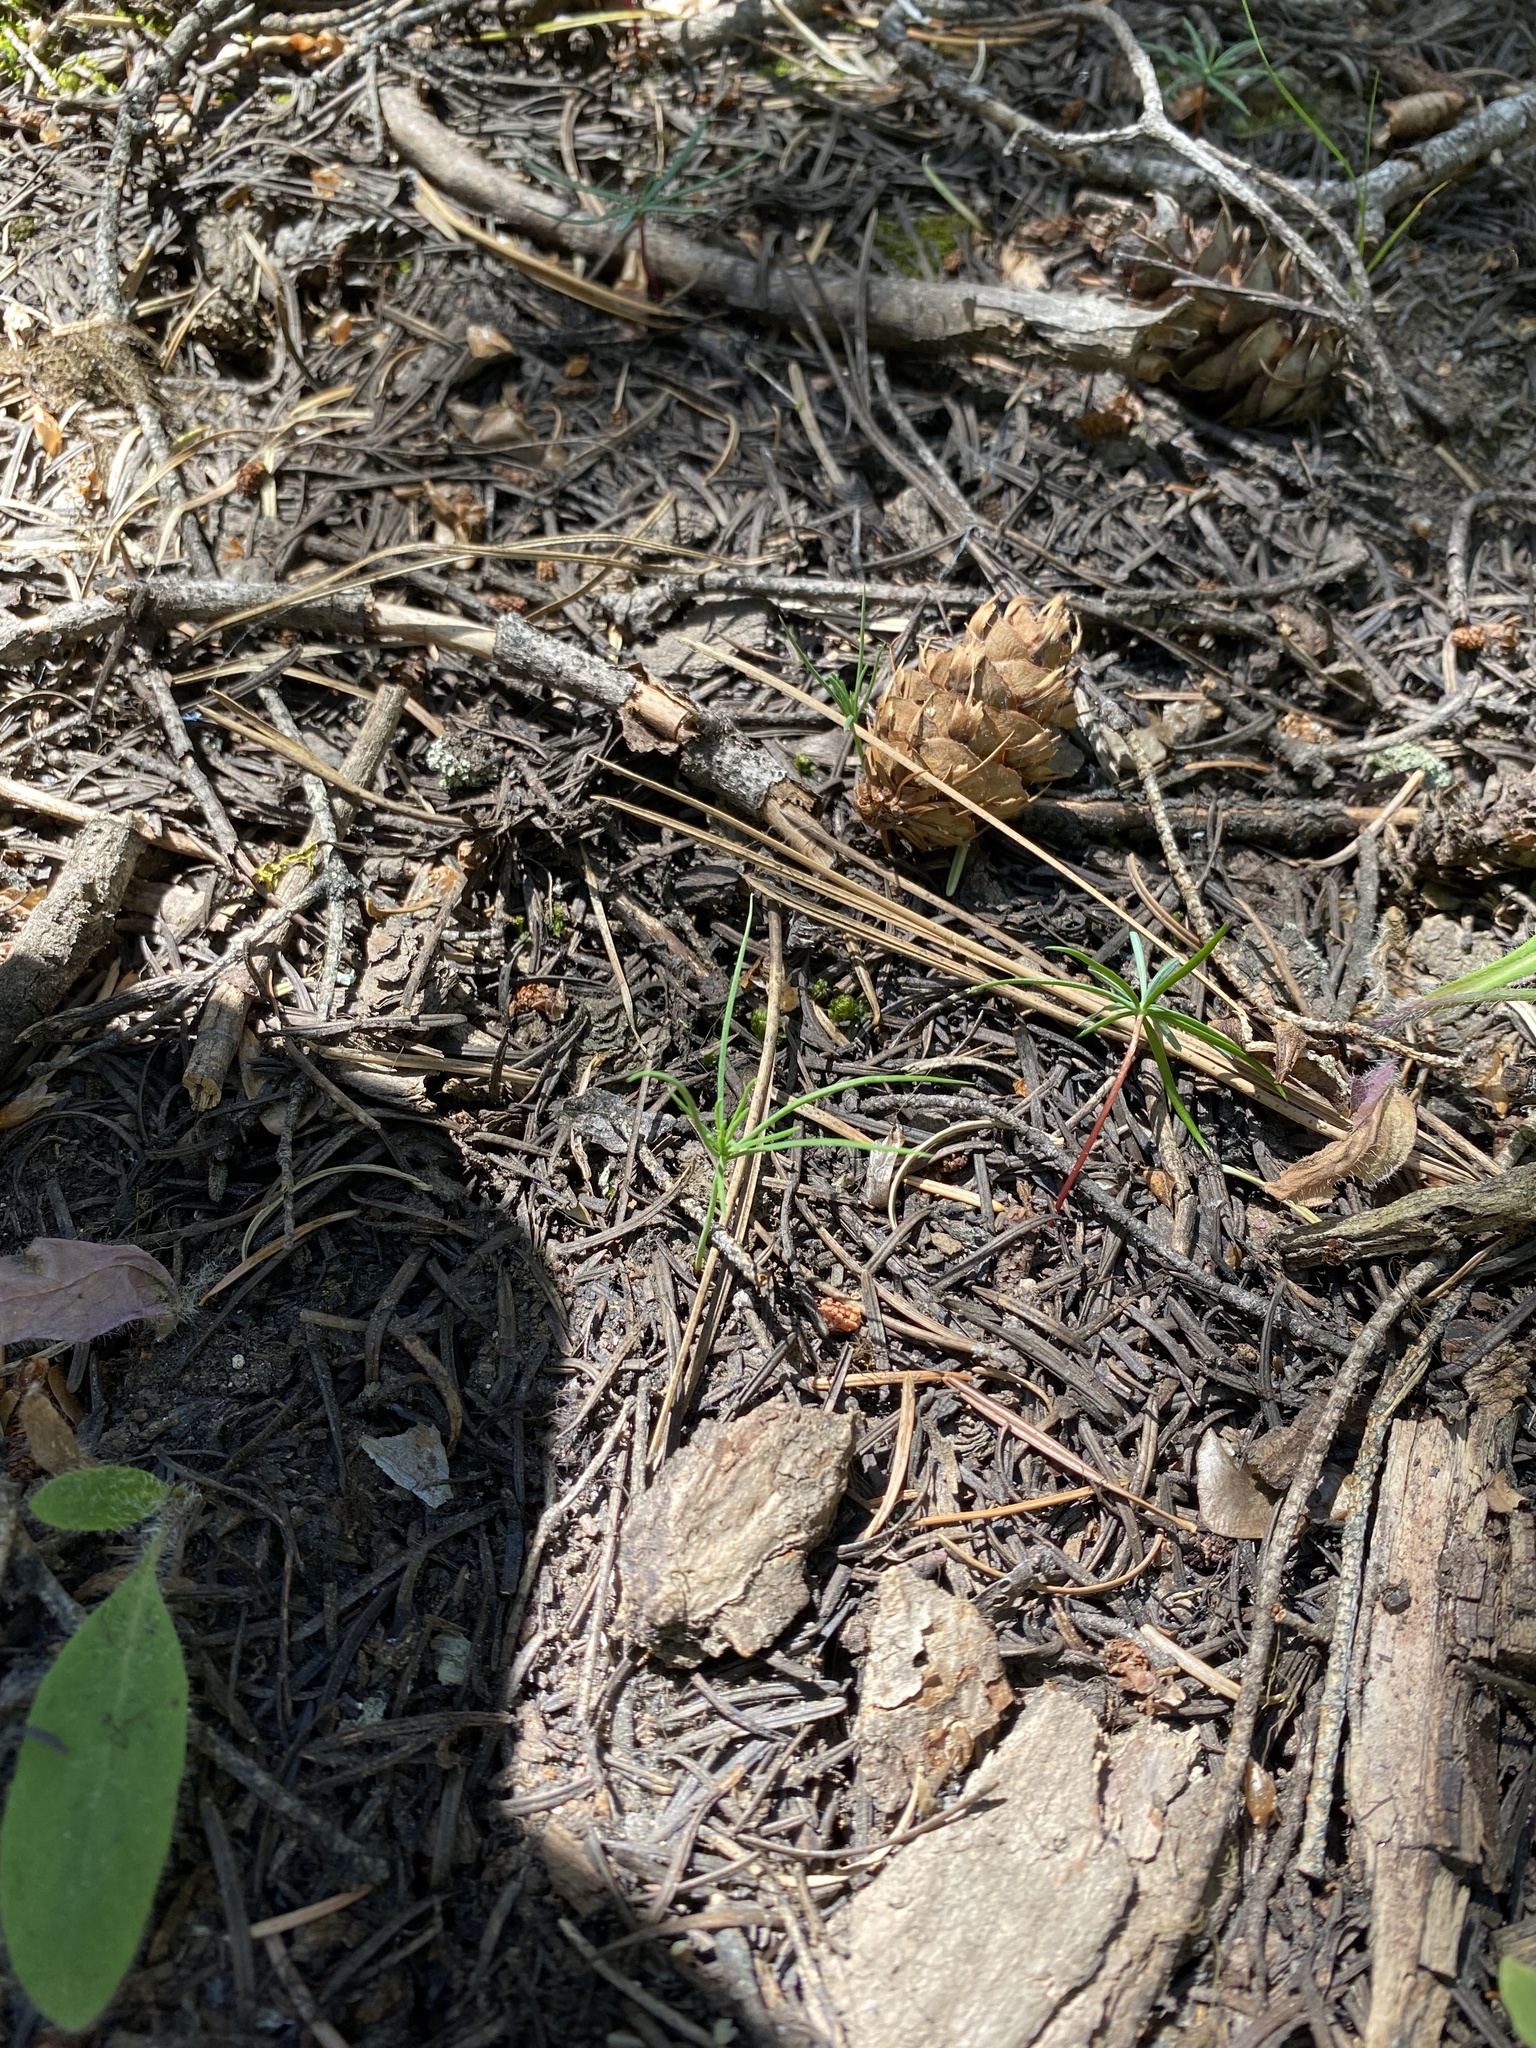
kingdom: Plantae
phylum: Tracheophyta
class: Pinopsida
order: Pinales
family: Pinaceae
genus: Larix
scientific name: Larix occidentalis
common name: Western larch
